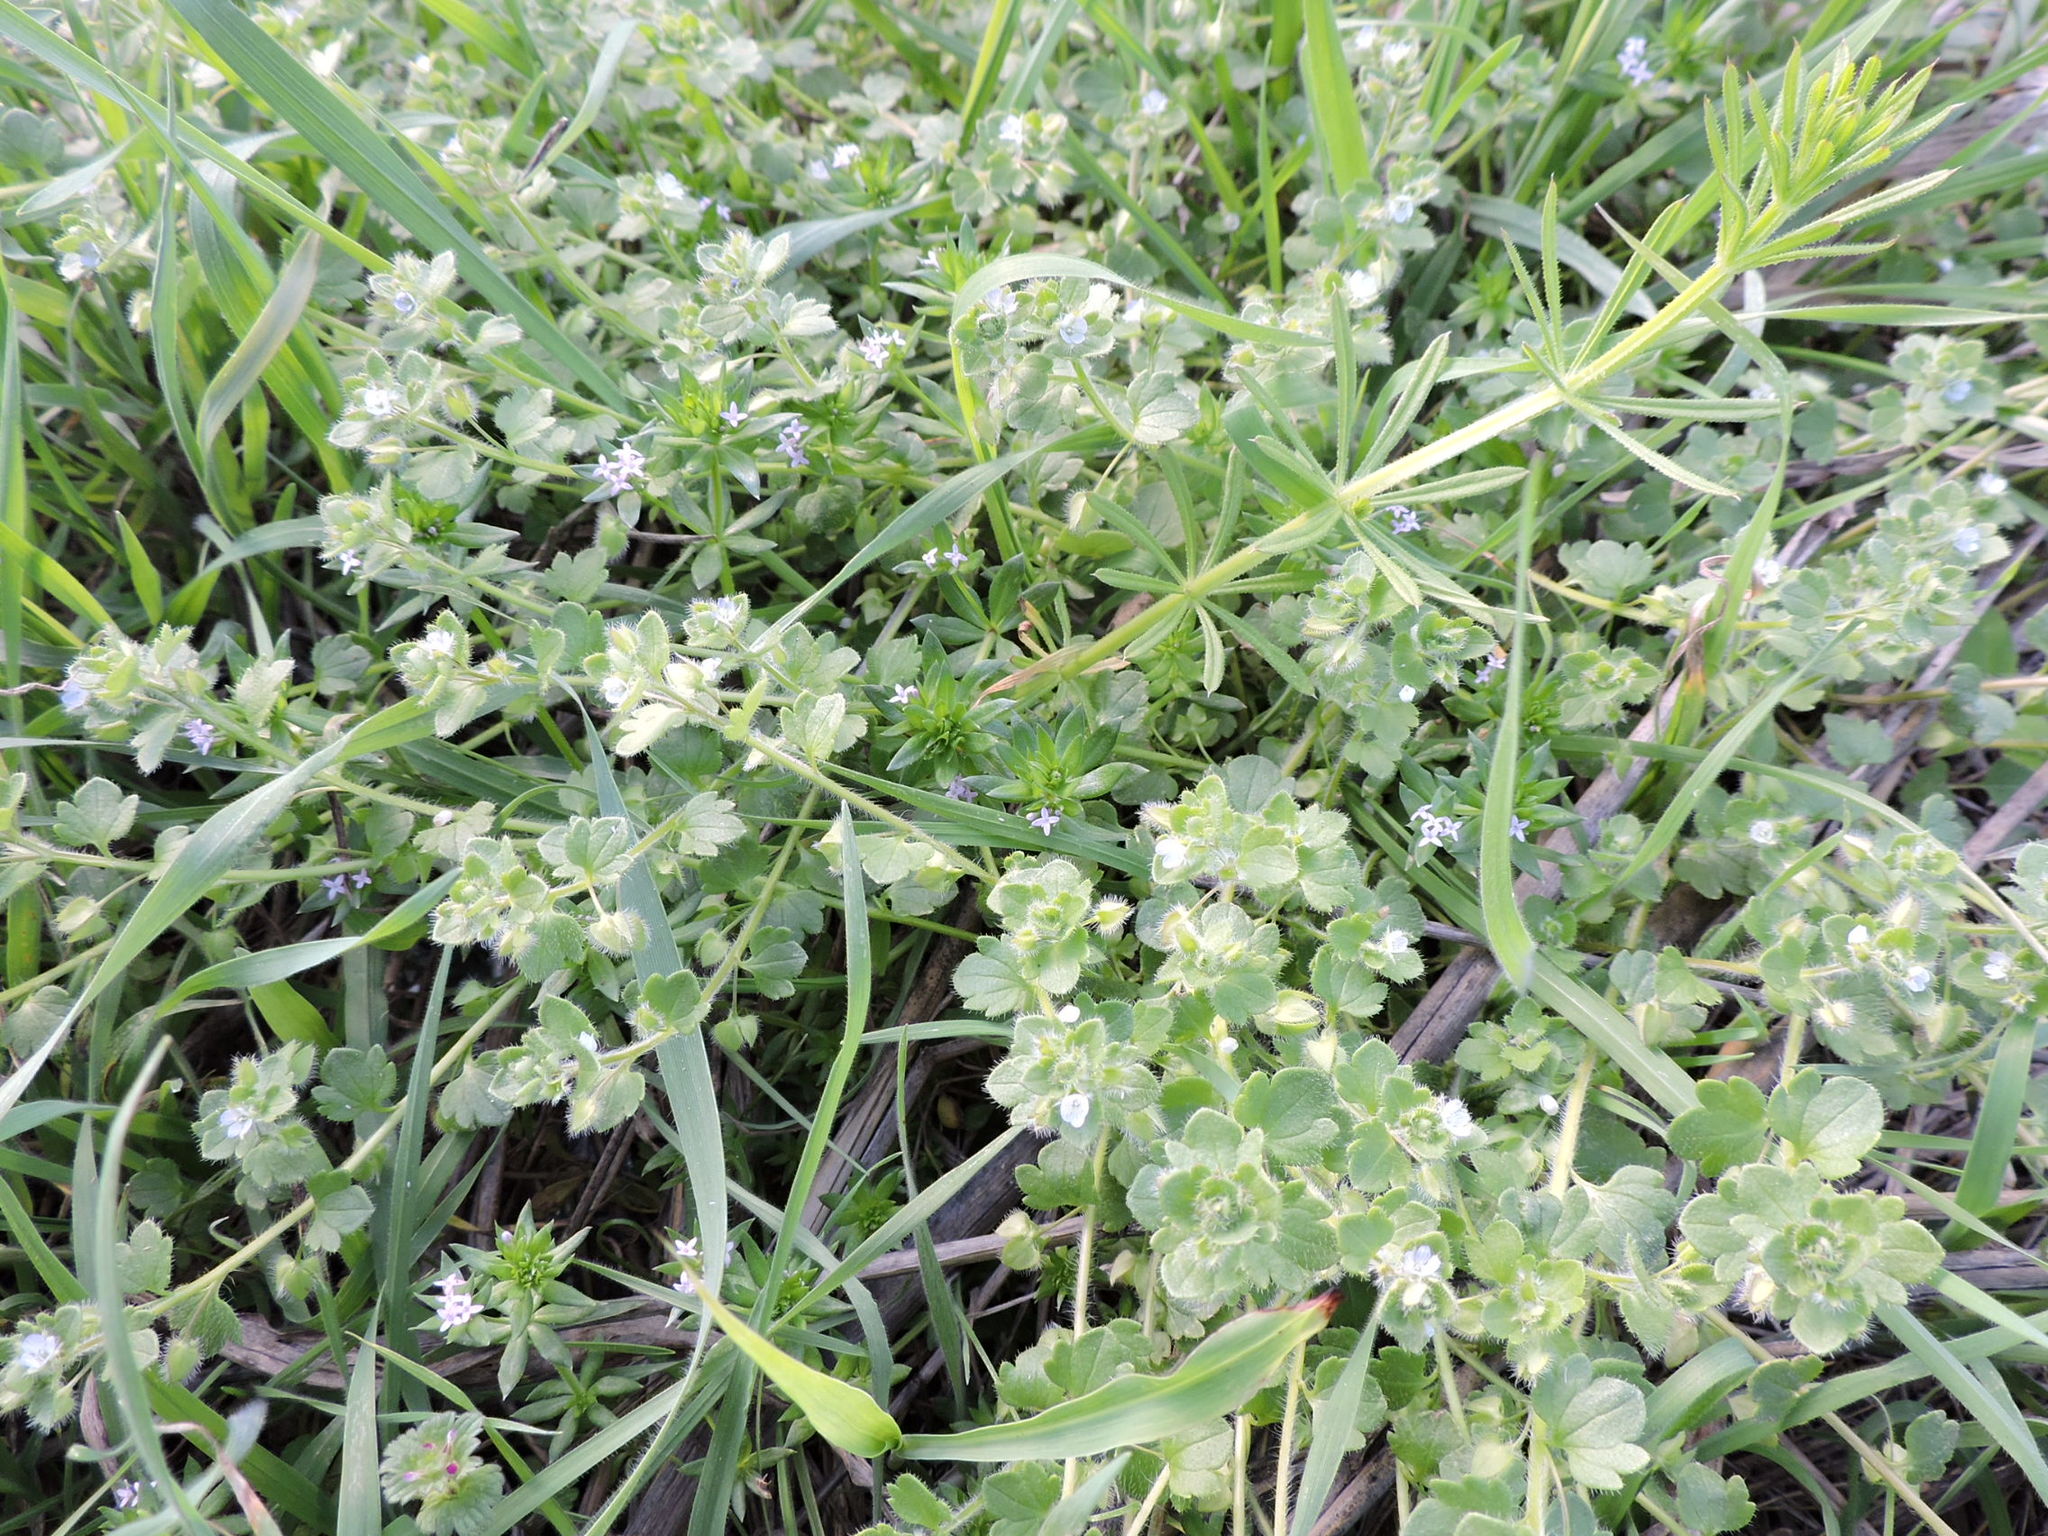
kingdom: Plantae
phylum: Tracheophyta
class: Magnoliopsida
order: Lamiales
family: Plantaginaceae
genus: Veronica
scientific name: Veronica hederifolia
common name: Ivy-leaved speedwell
